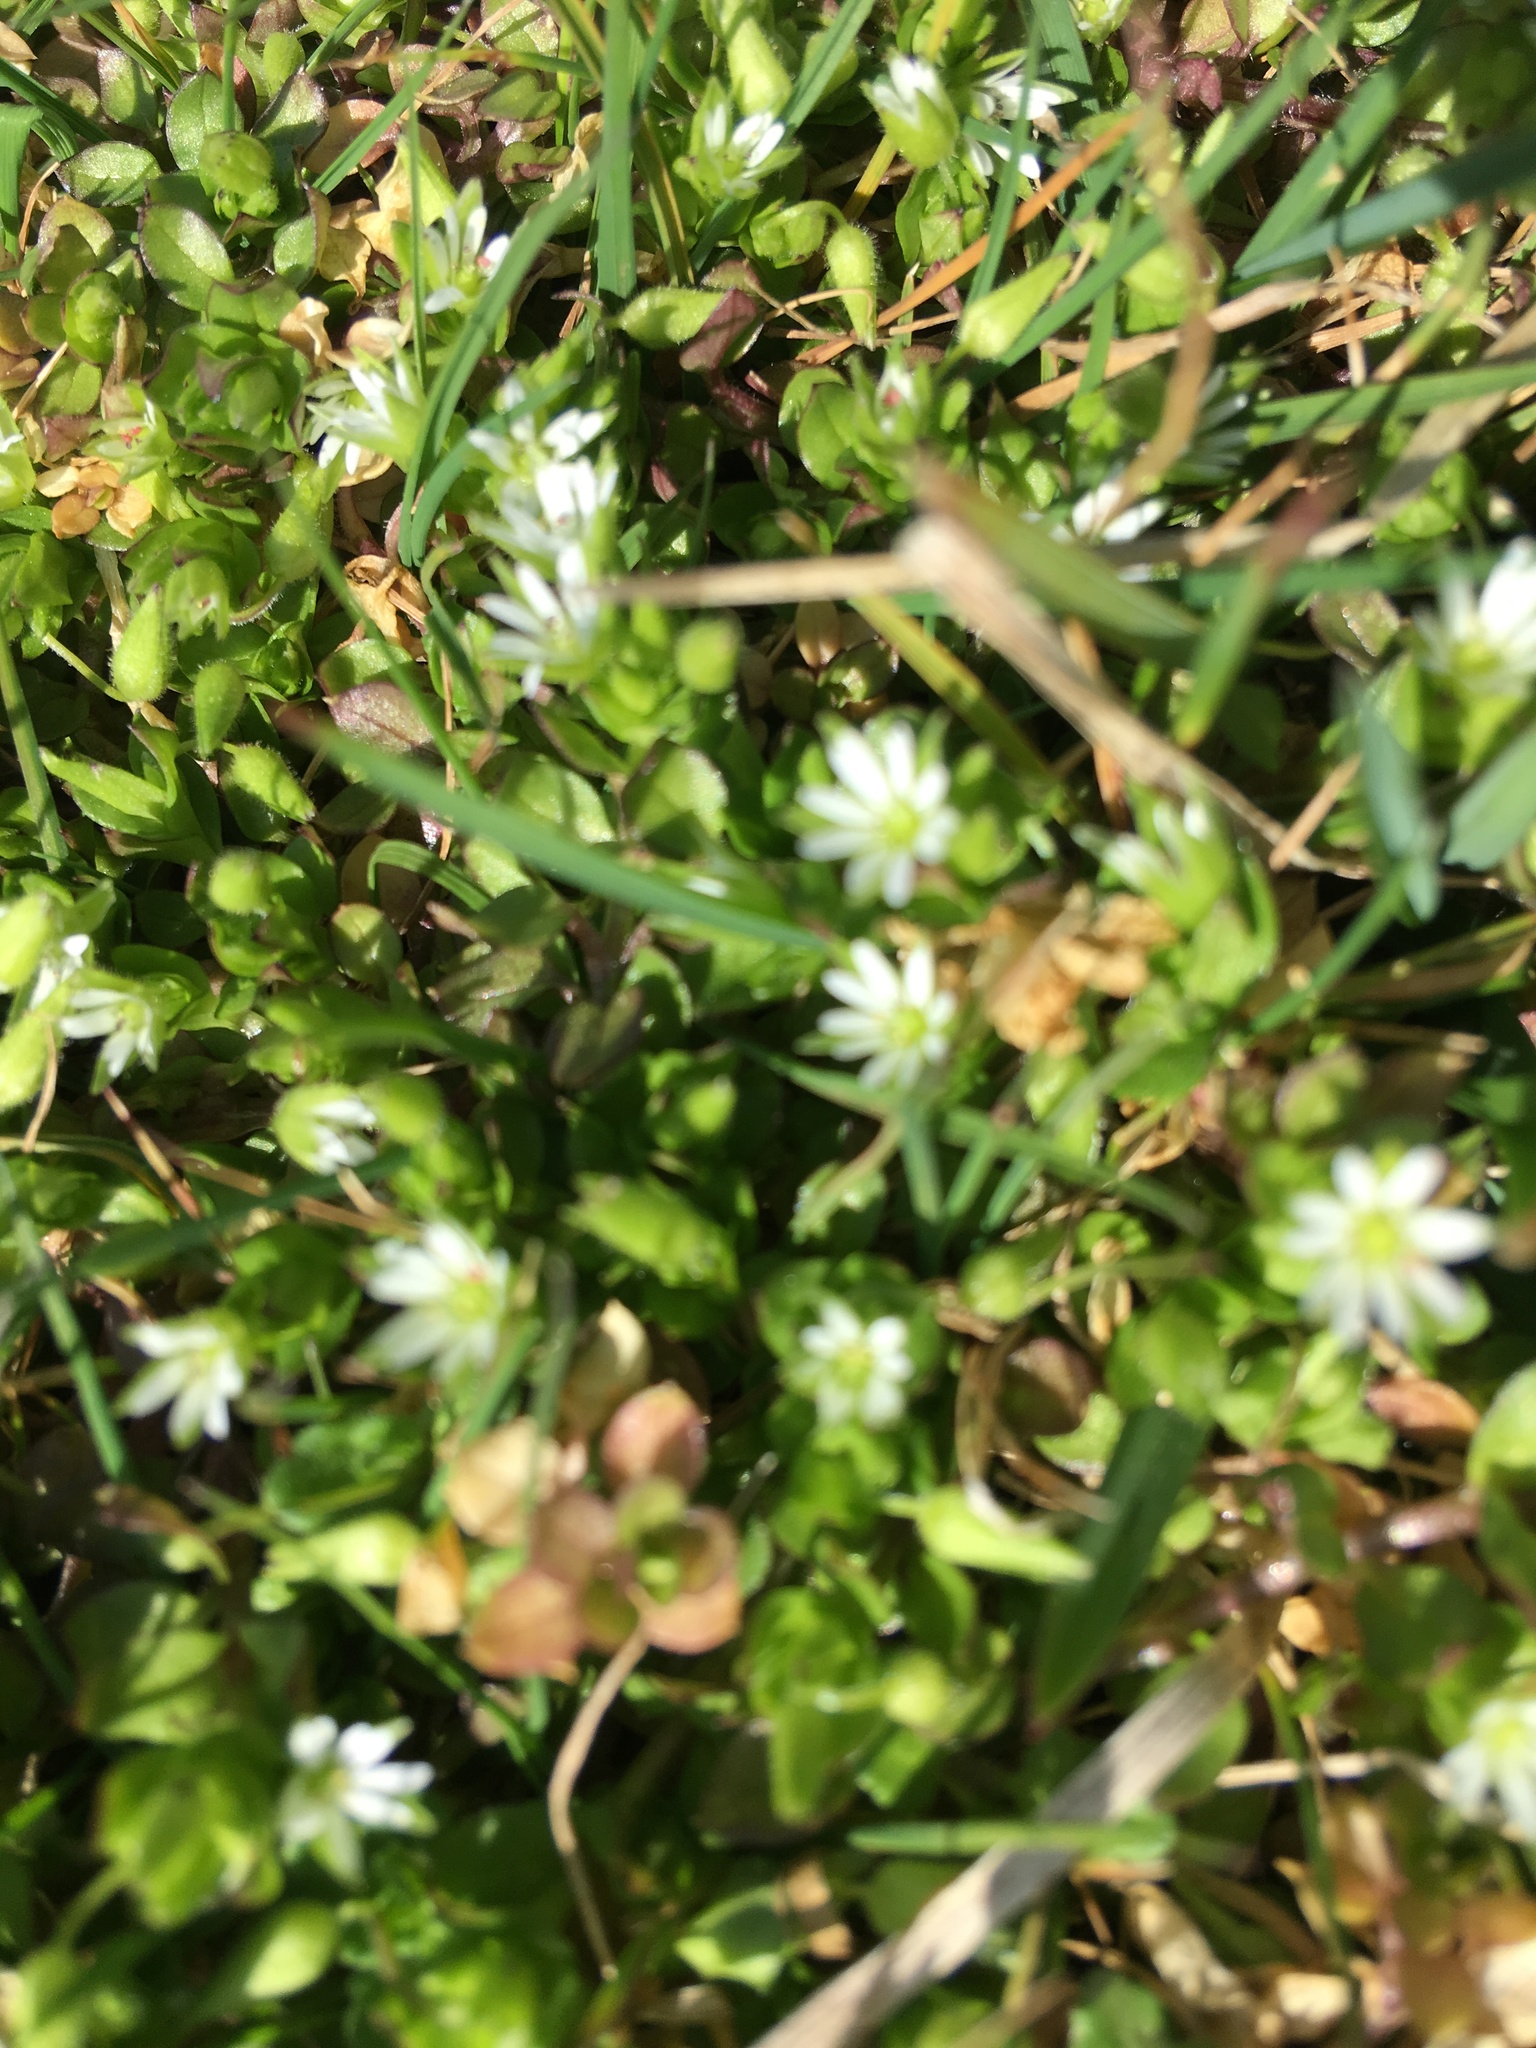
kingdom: Plantae
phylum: Tracheophyta
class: Magnoliopsida
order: Caryophyllales
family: Caryophyllaceae
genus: Stellaria
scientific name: Stellaria media
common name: Common chickweed
